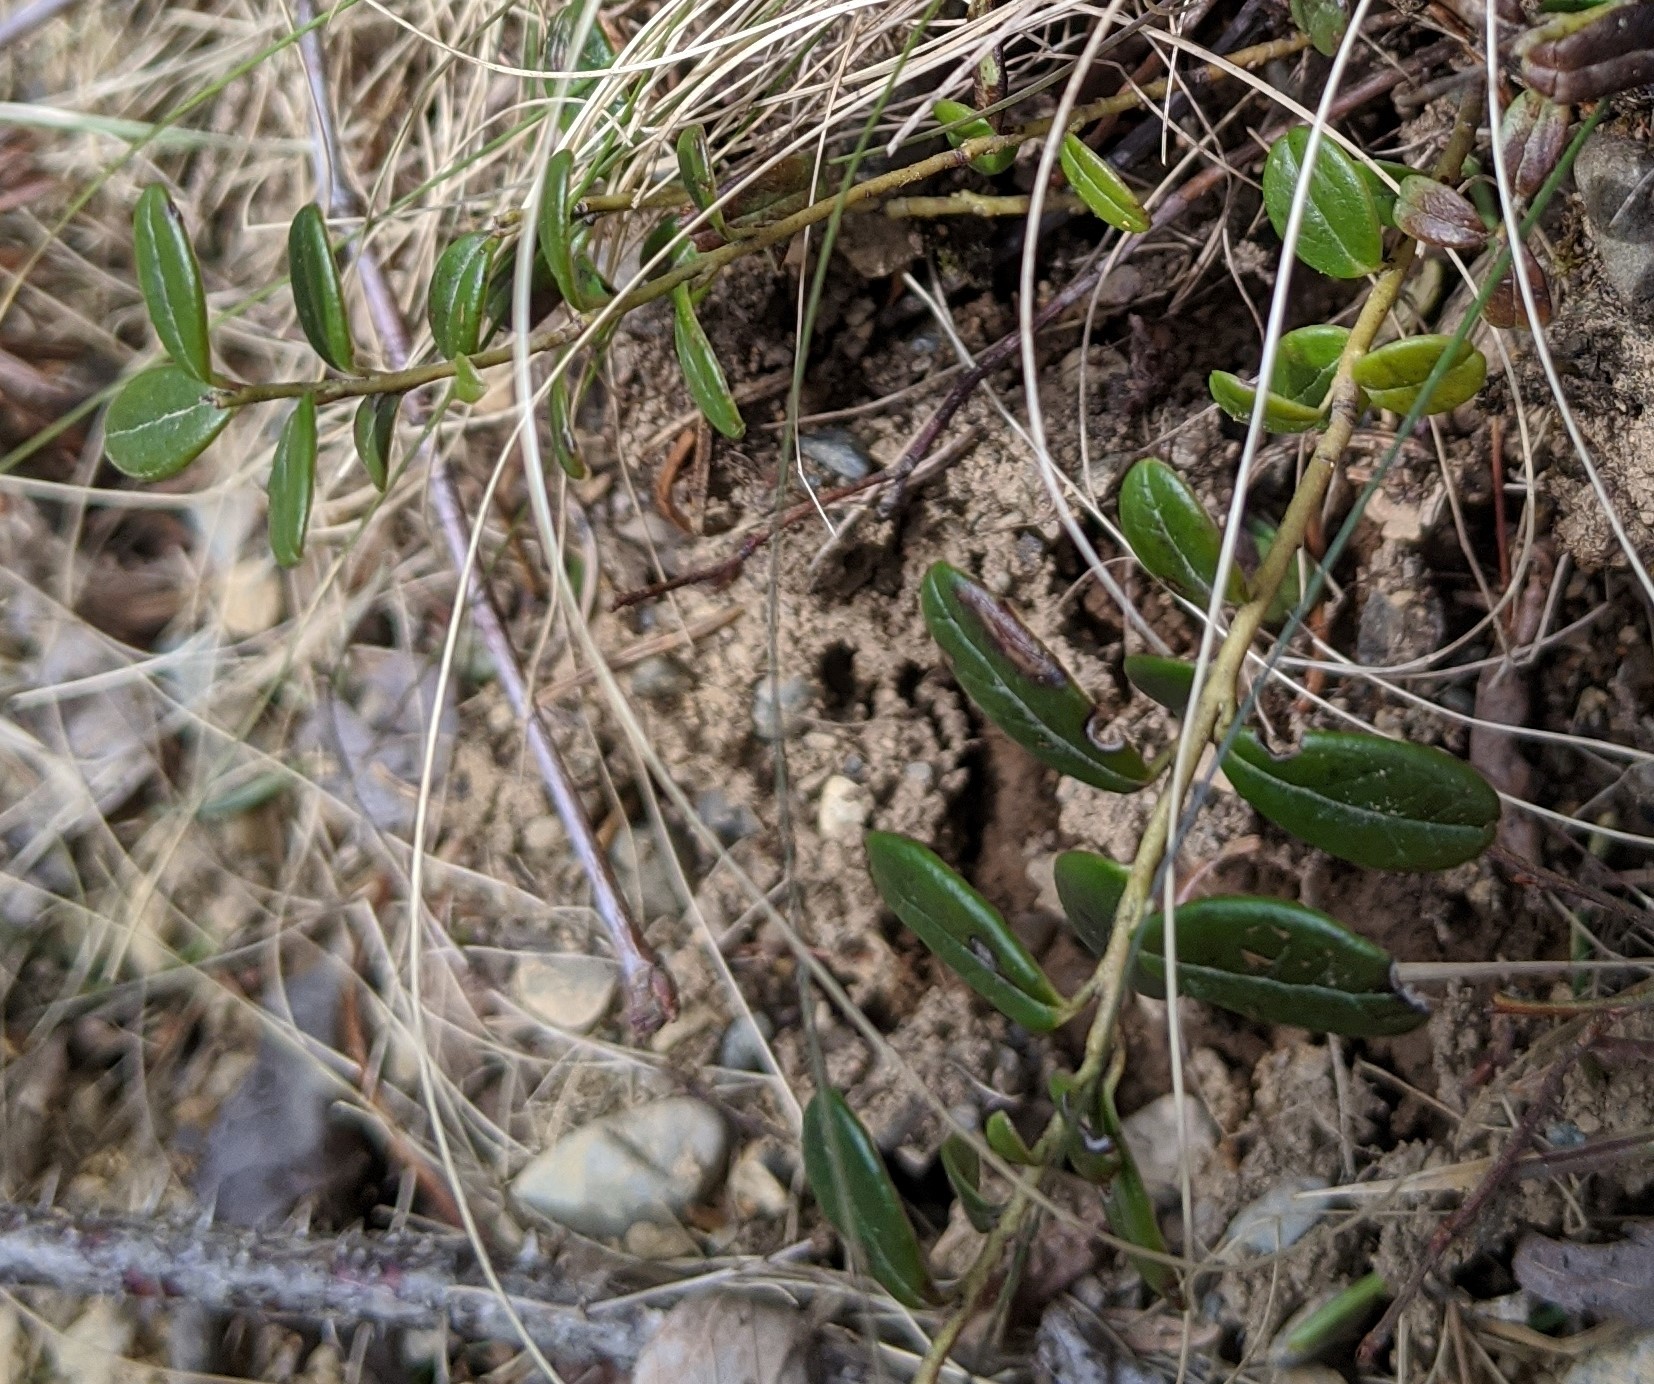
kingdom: Plantae
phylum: Tracheophyta
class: Magnoliopsida
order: Ericales
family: Ericaceae
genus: Vaccinium
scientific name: Vaccinium vitis-idaea
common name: Cowberry
